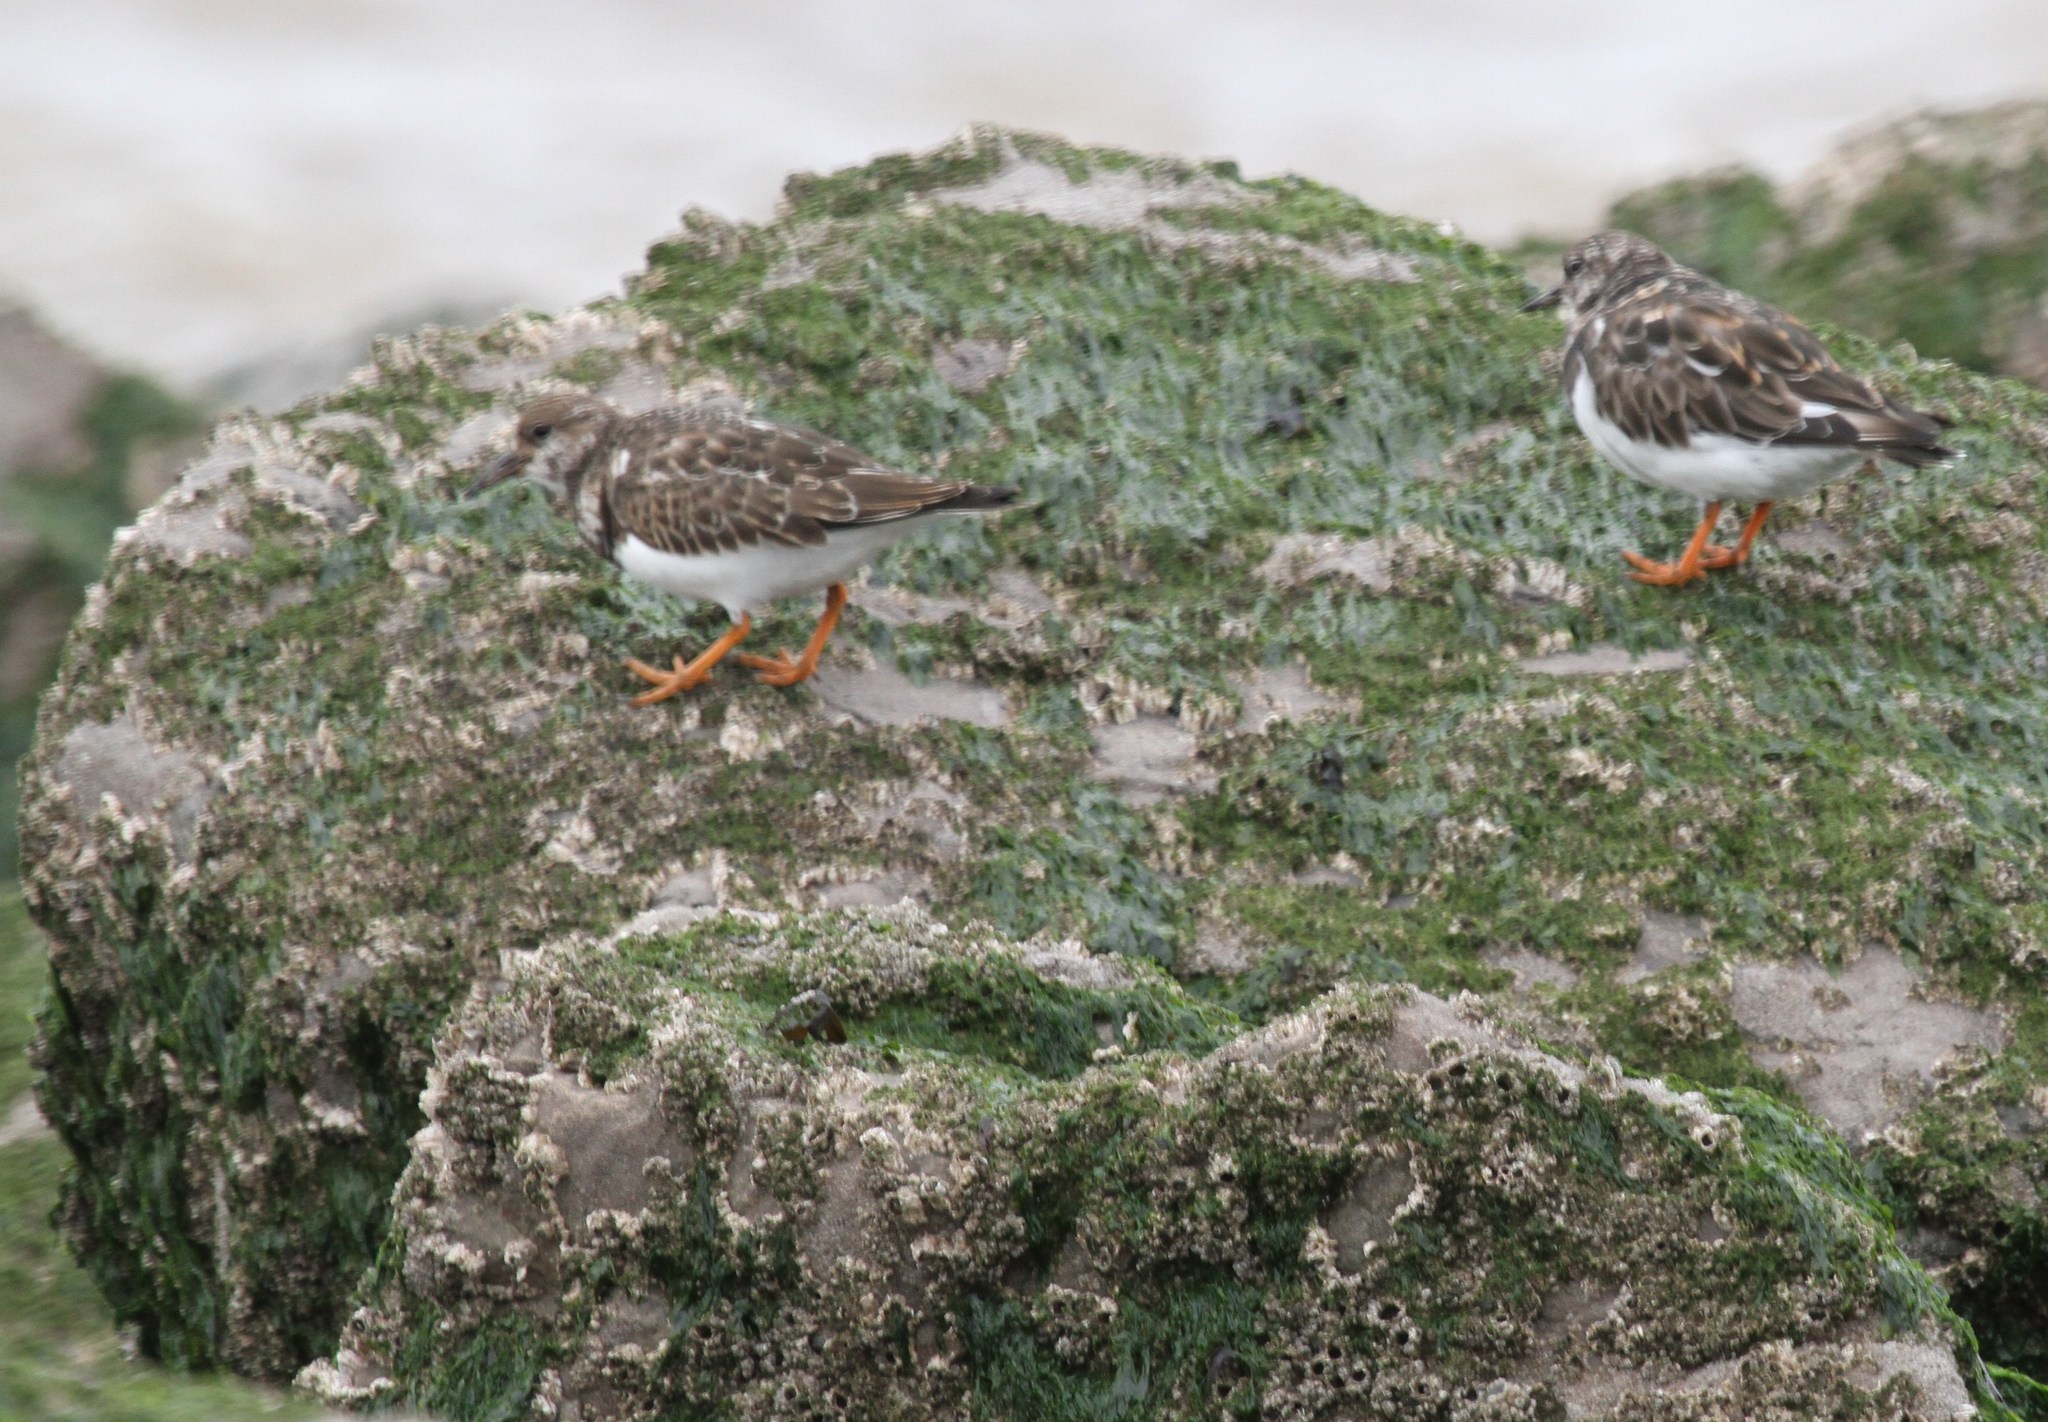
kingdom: Animalia
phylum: Chordata
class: Aves
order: Charadriiformes
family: Scolopacidae
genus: Arenaria
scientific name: Arenaria interpres
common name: Ruddy turnstone
